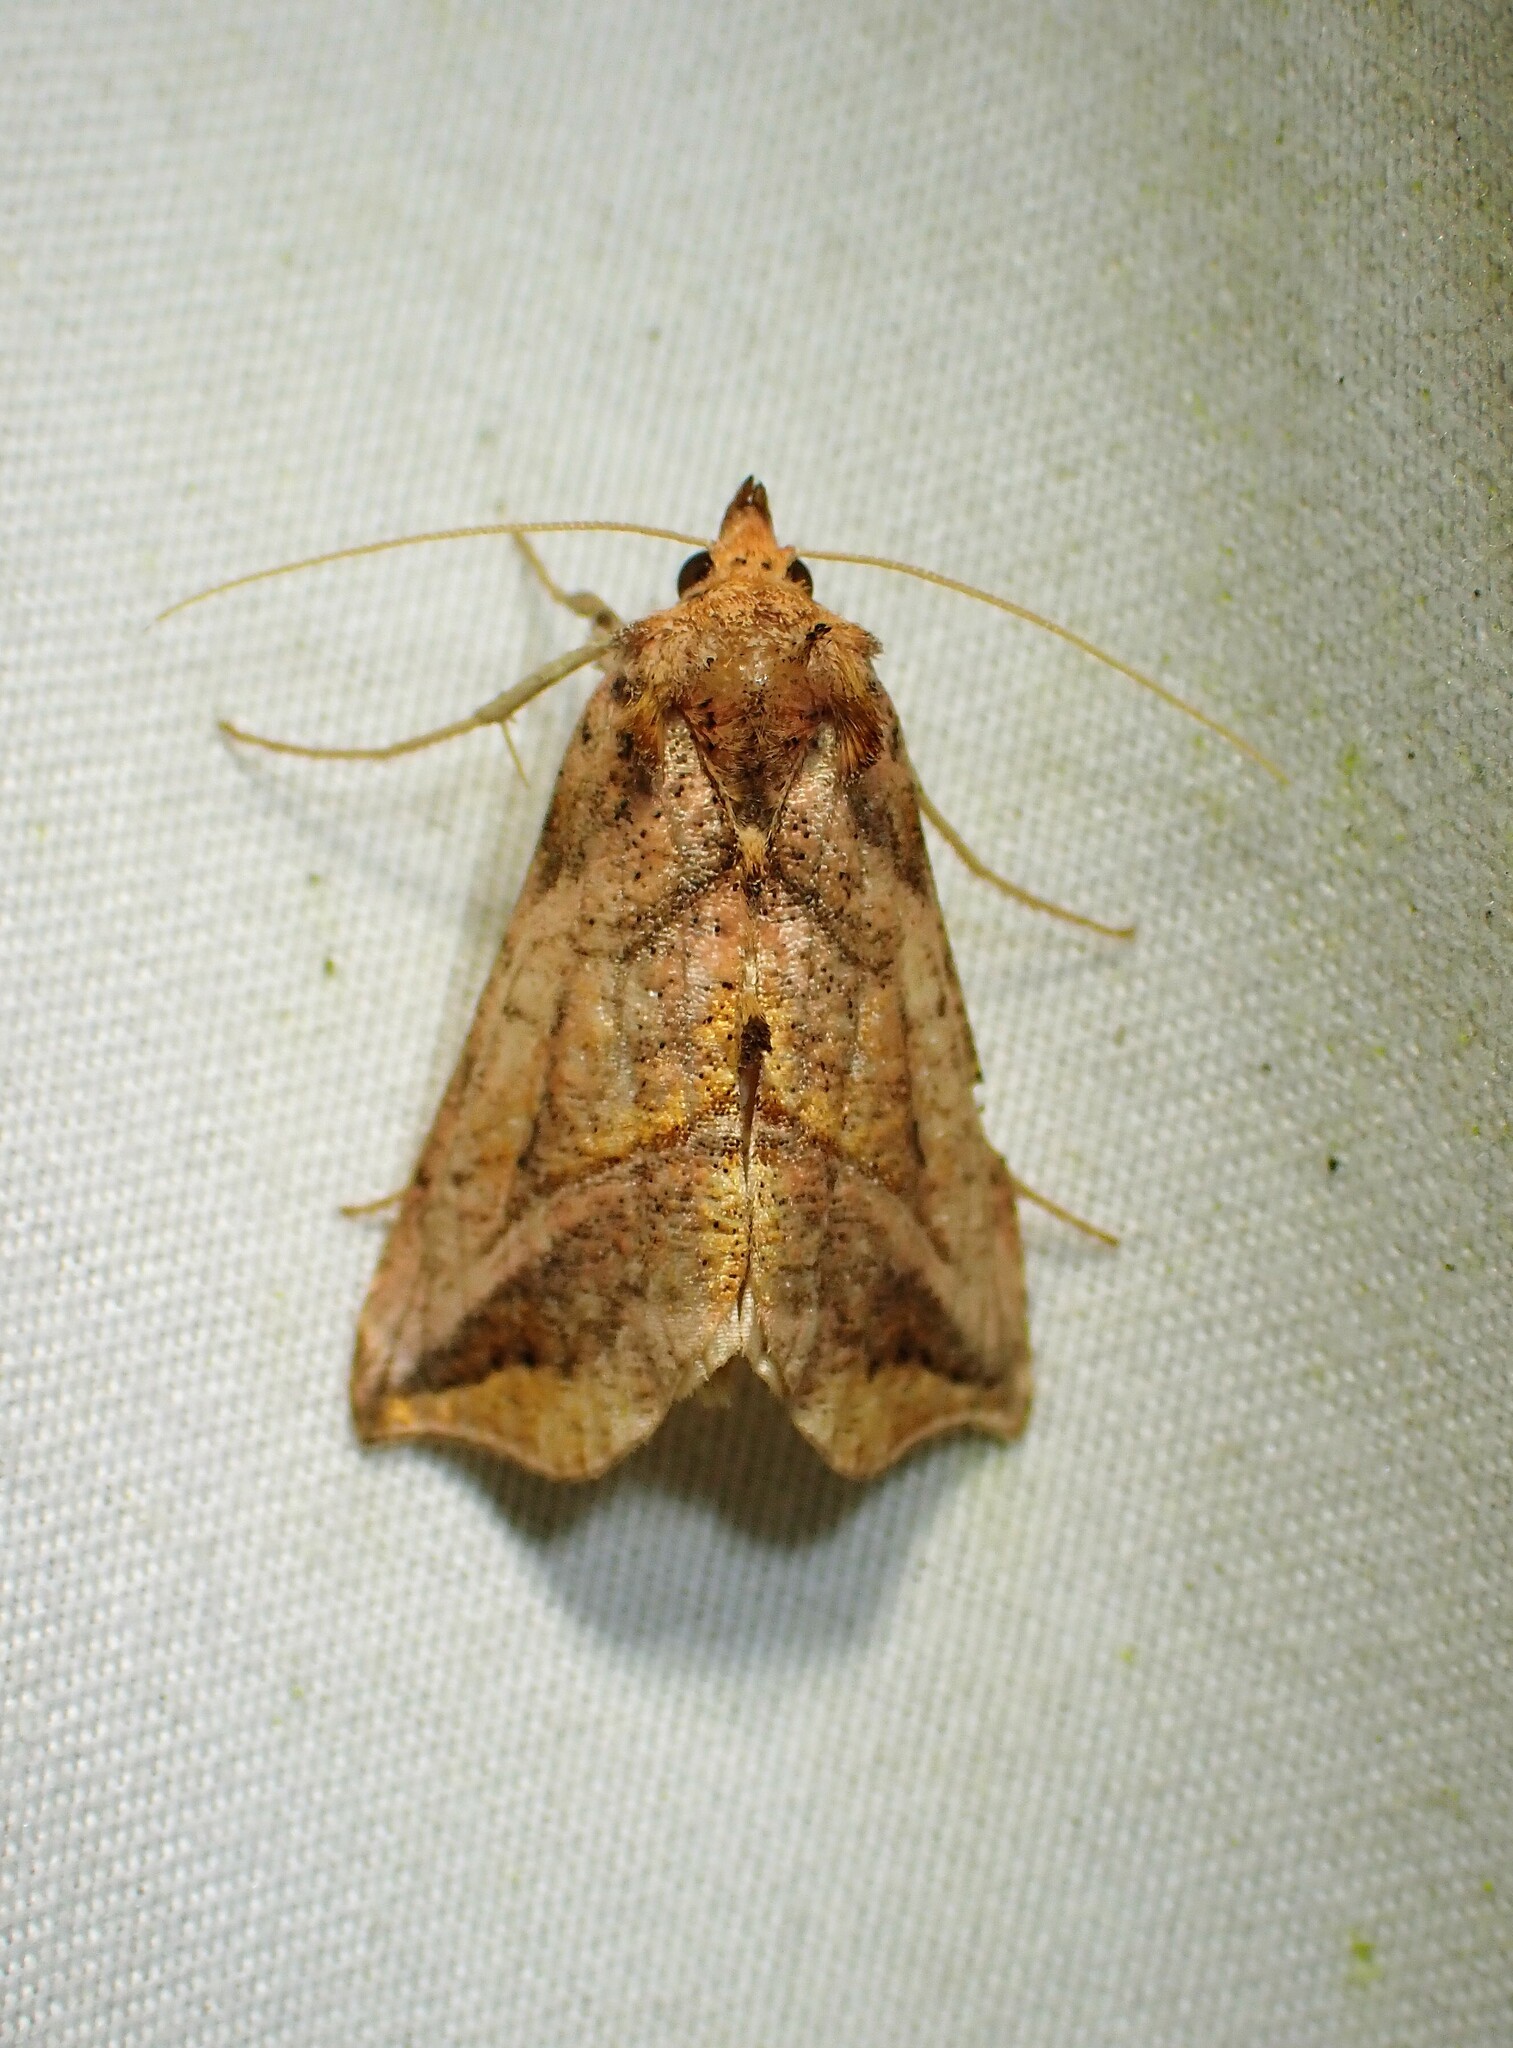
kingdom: Animalia
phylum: Arthropoda
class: Insecta
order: Lepidoptera
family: Noctuidae
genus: Pseudeva
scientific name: Pseudeva purpurigera
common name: Straight-lined looper moth
